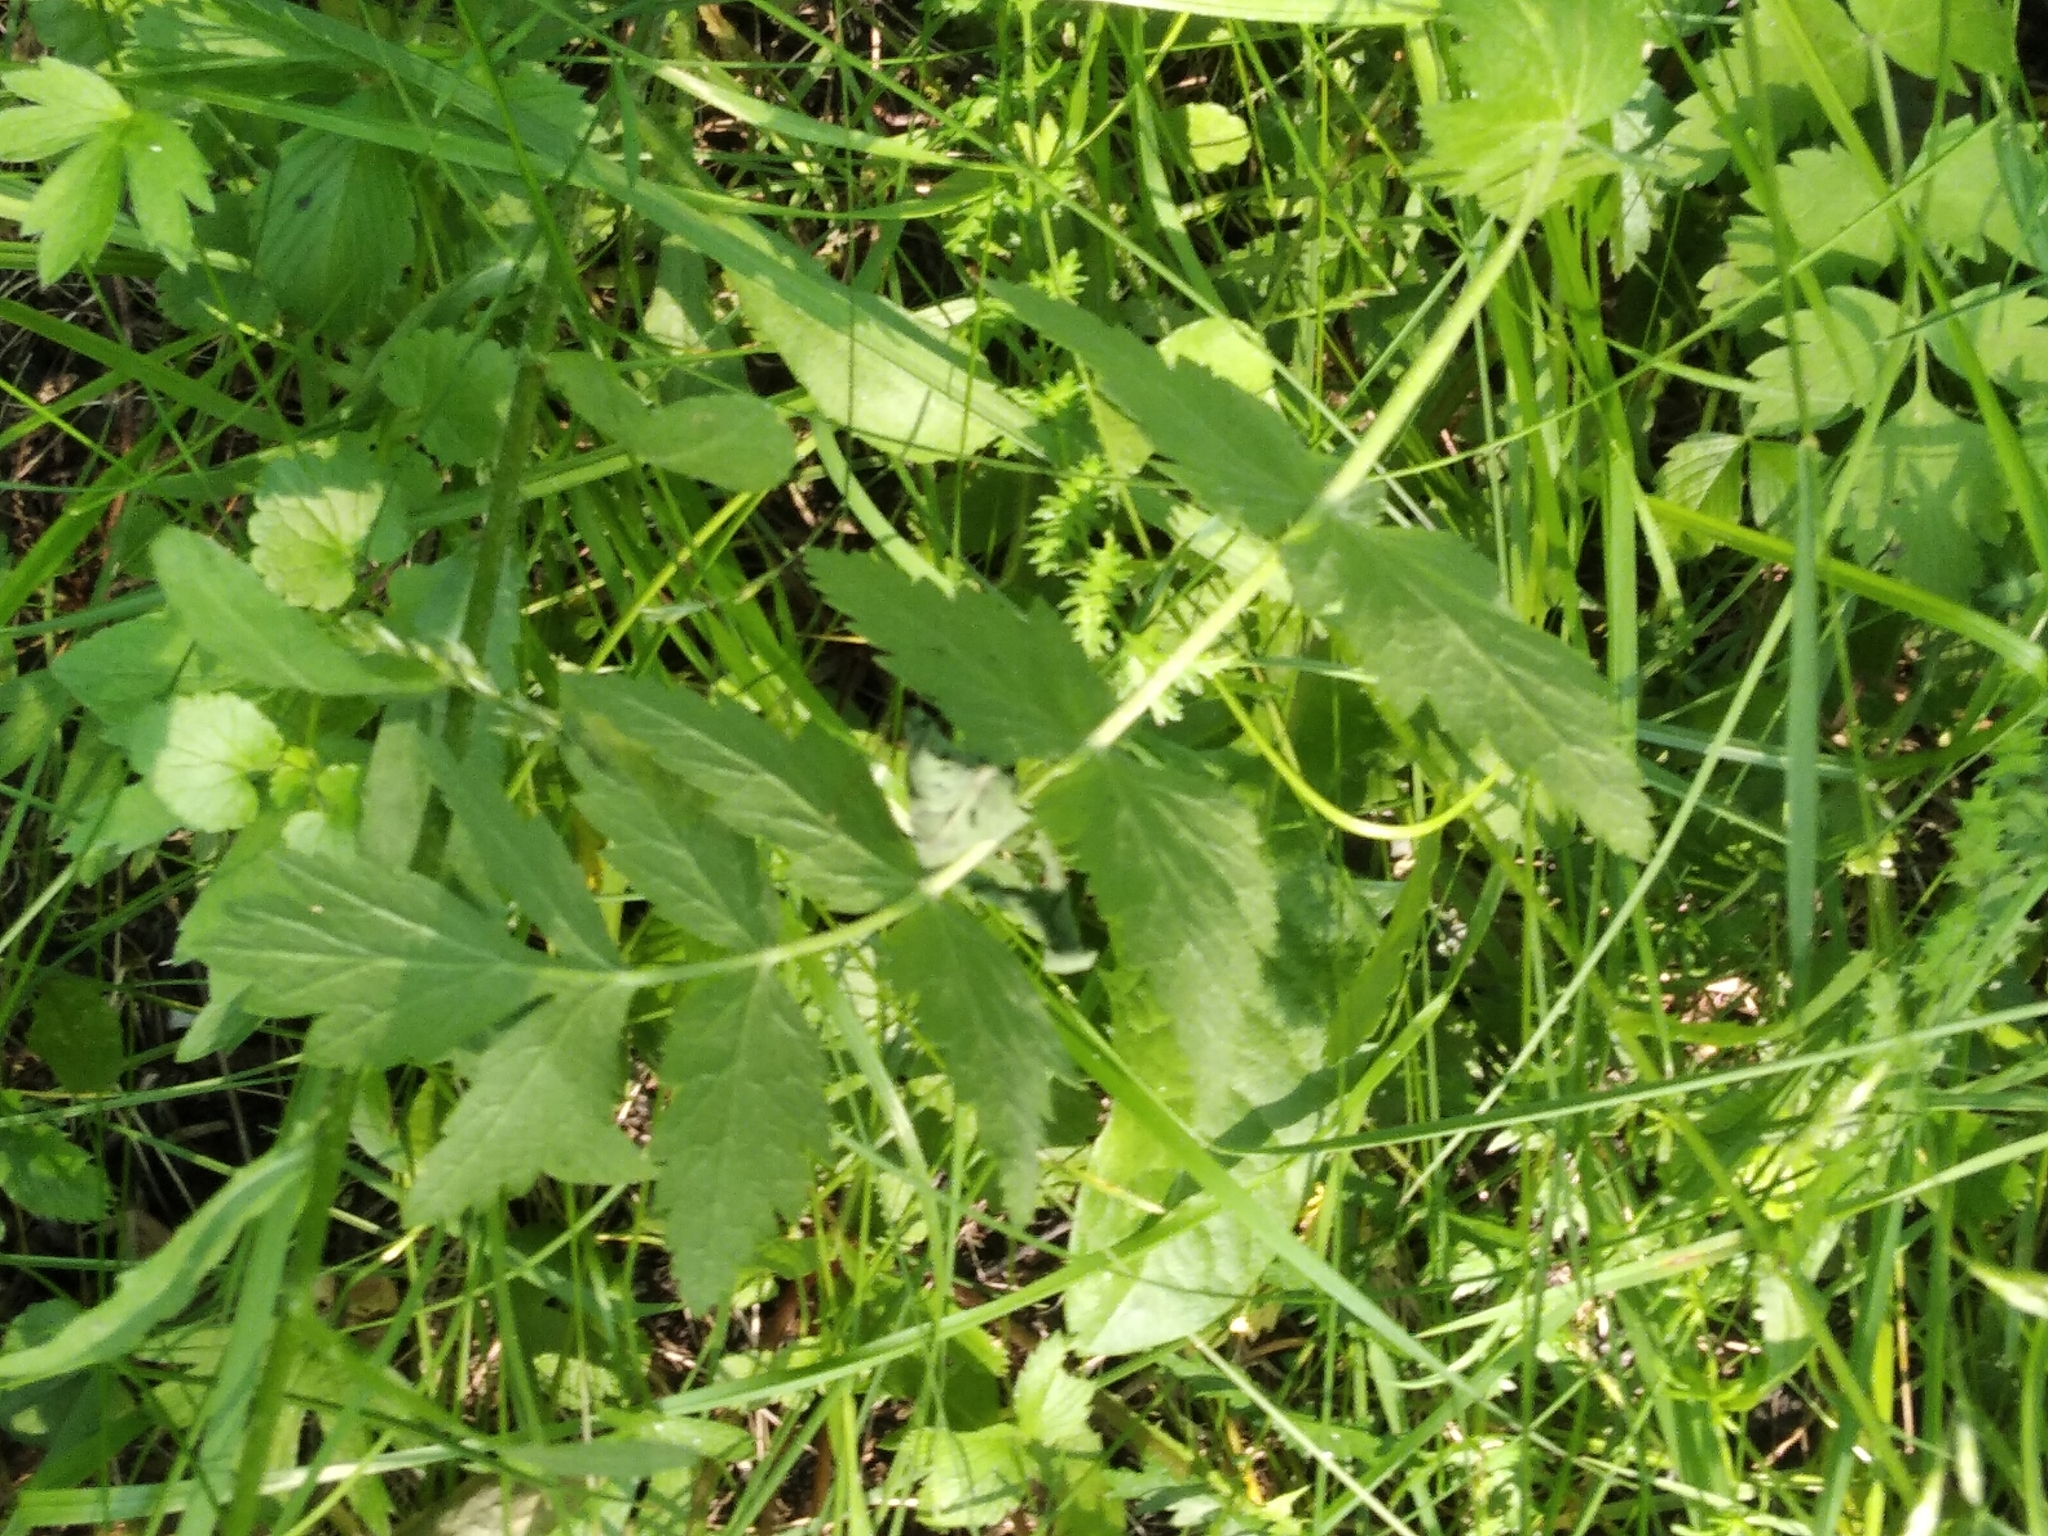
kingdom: Plantae
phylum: Tracheophyta
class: Magnoliopsida
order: Apiales
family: Apiaceae
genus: Pastinaca
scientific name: Pastinaca sativa
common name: Wild parsnip
